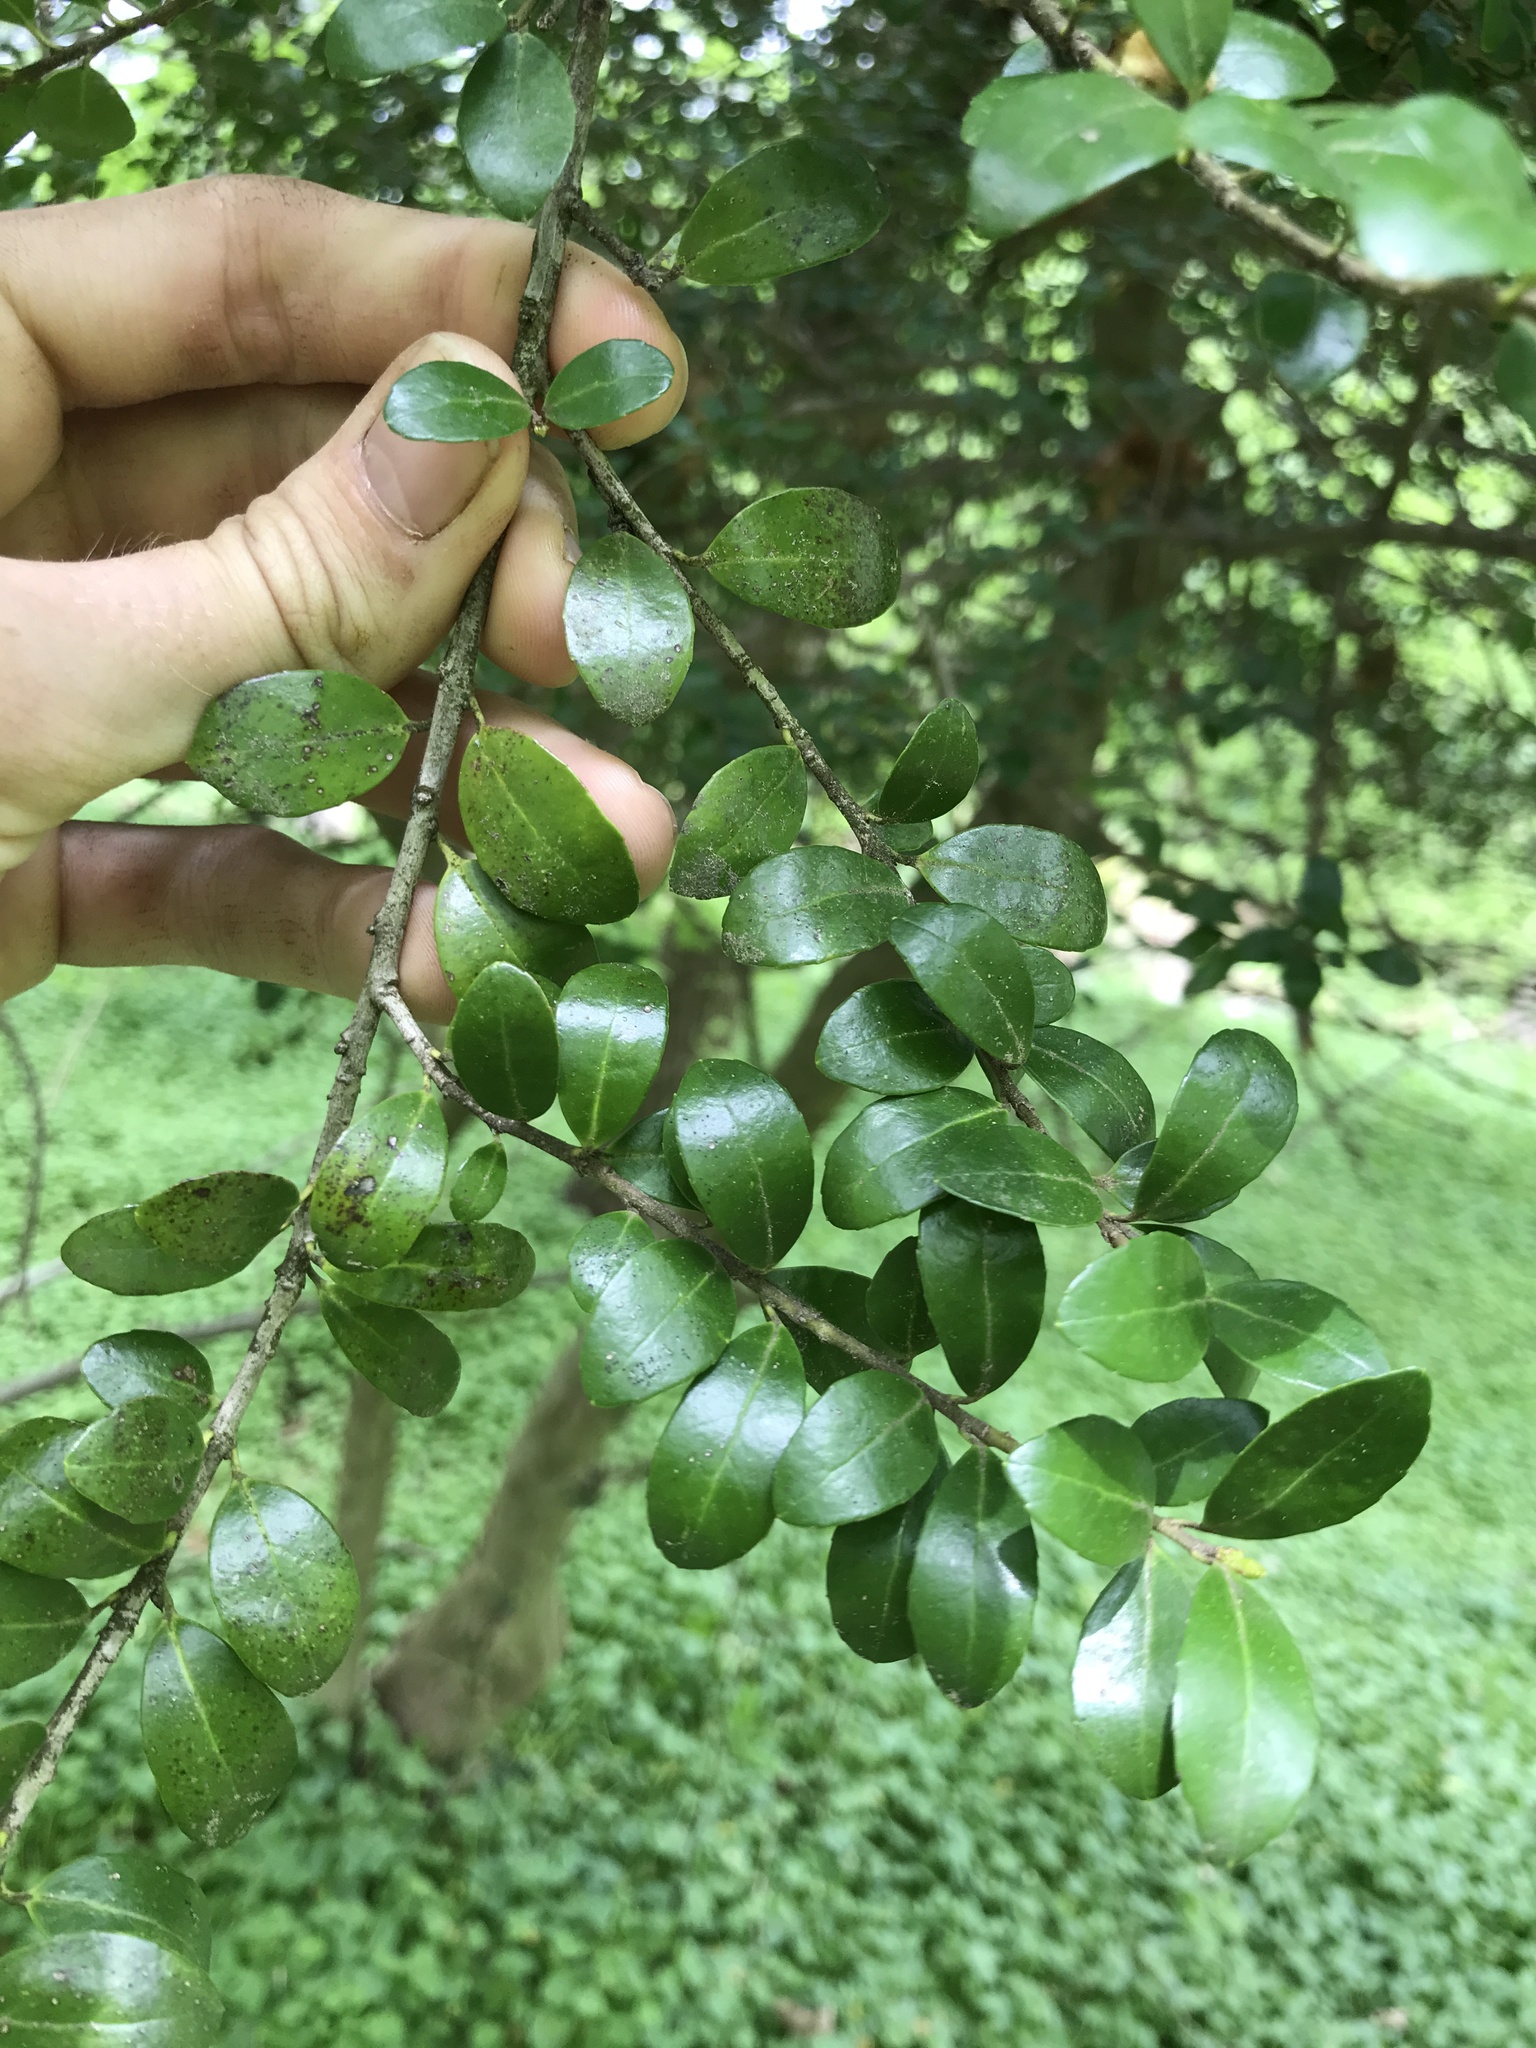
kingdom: Plantae
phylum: Tracheophyta
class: Magnoliopsida
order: Aquifoliales
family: Aquifoliaceae
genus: Ilex
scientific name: Ilex crenata
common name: Japanese holly
